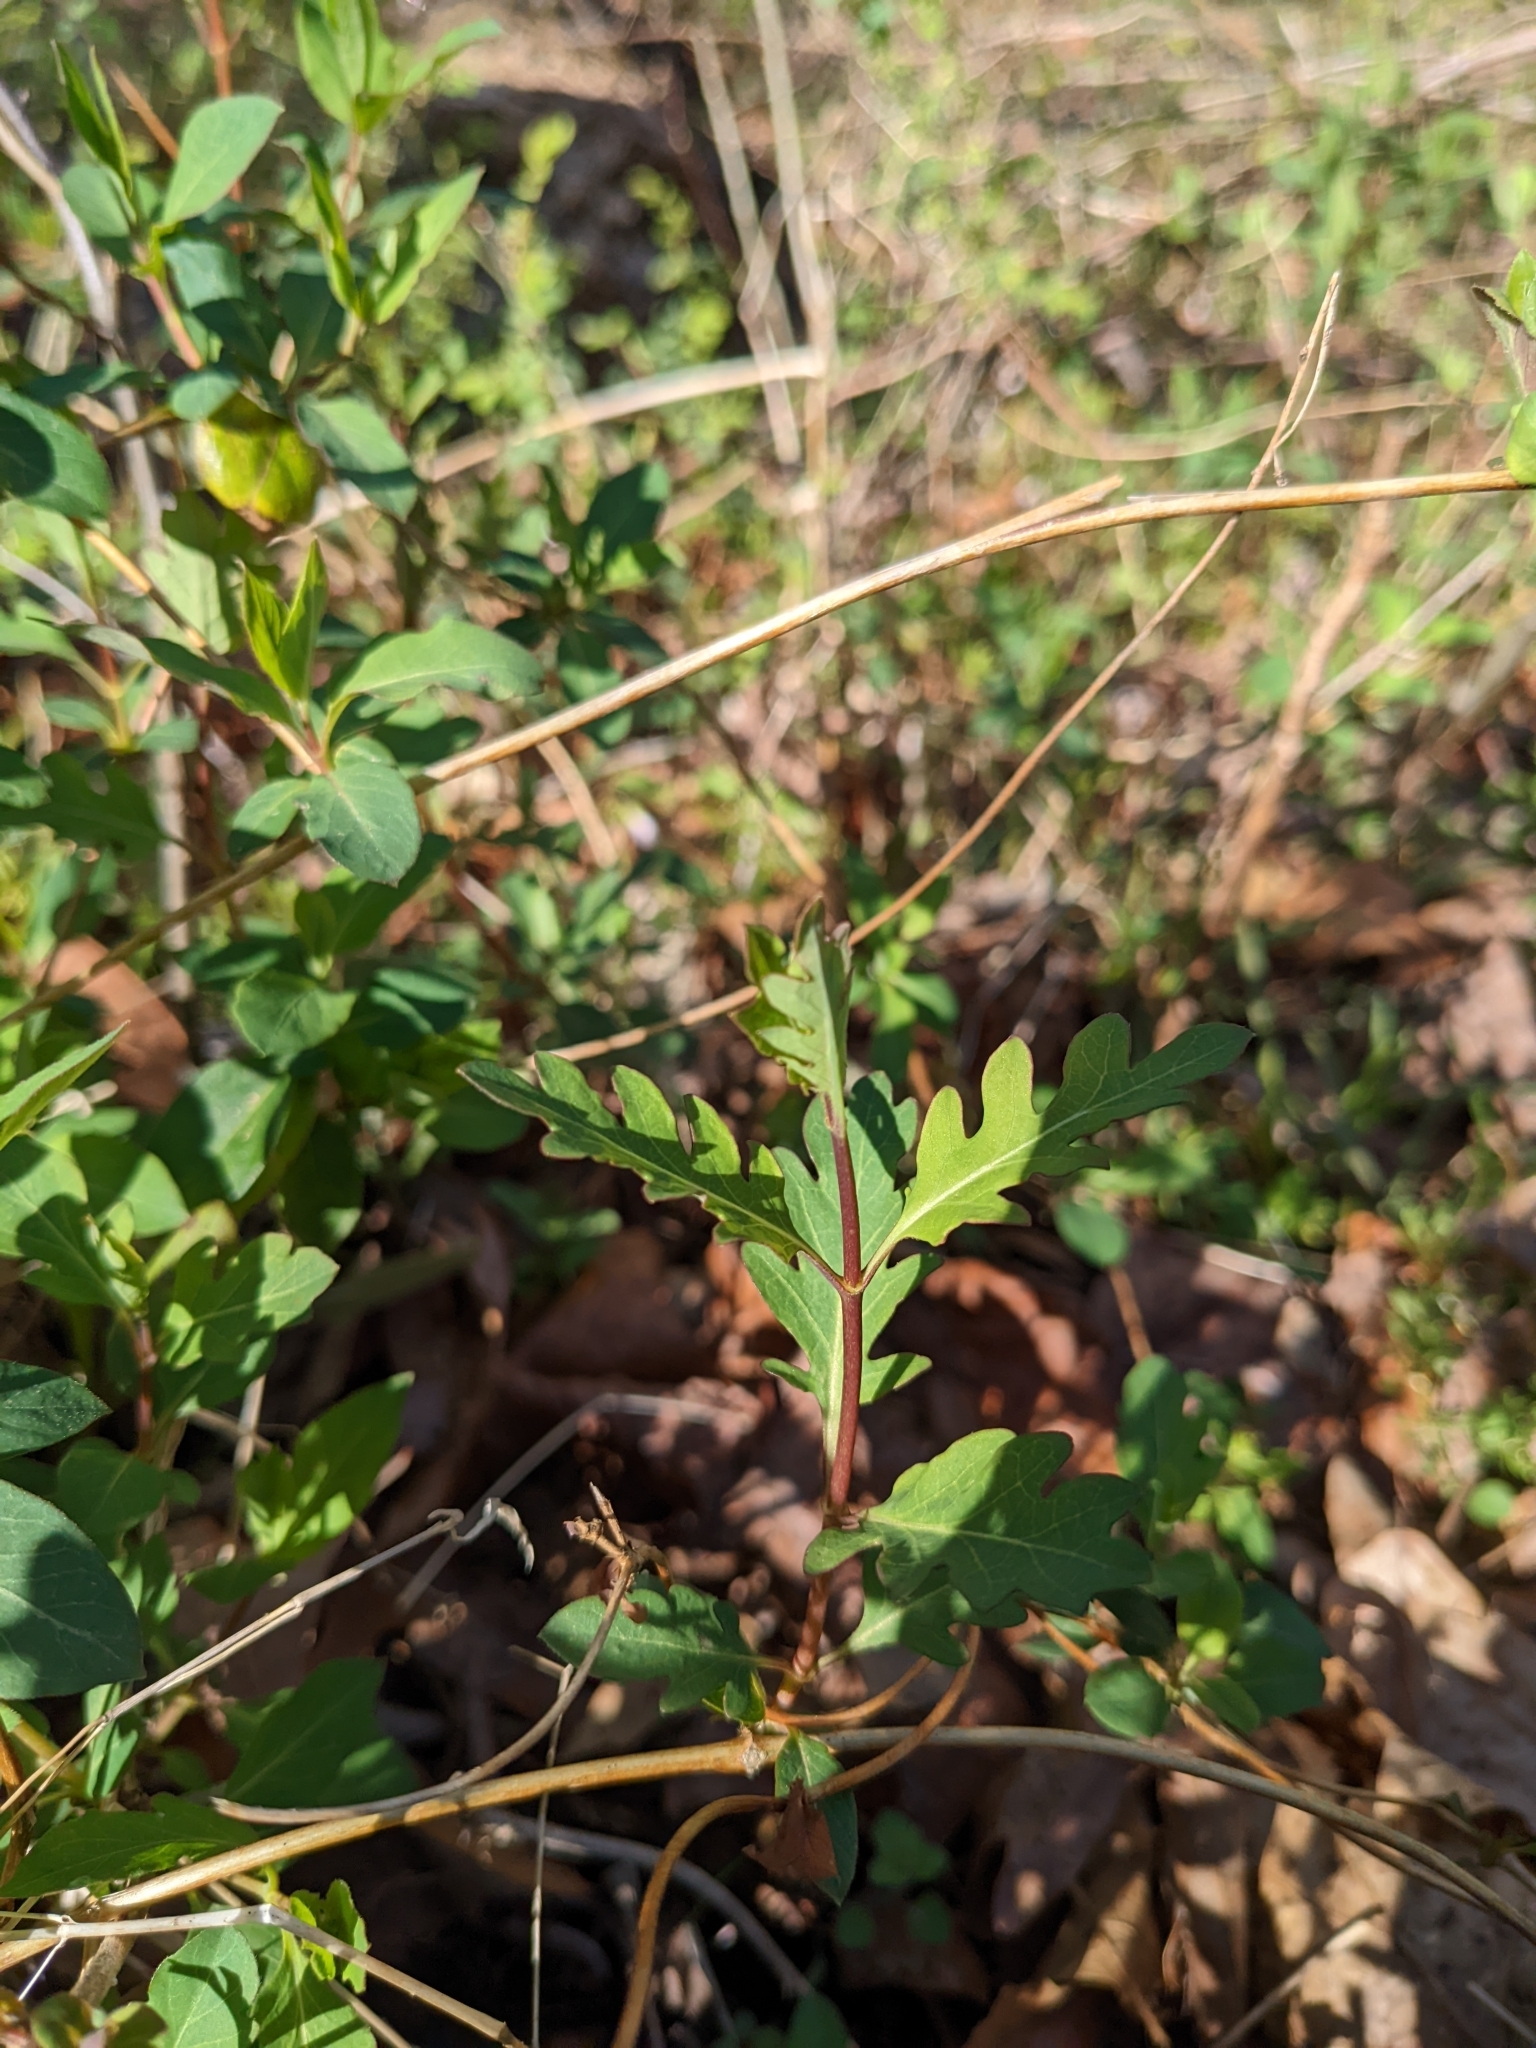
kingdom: Plantae
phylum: Tracheophyta
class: Magnoliopsida
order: Dipsacales
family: Caprifoliaceae
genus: Lonicera
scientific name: Lonicera japonica
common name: Japanese honeysuckle
